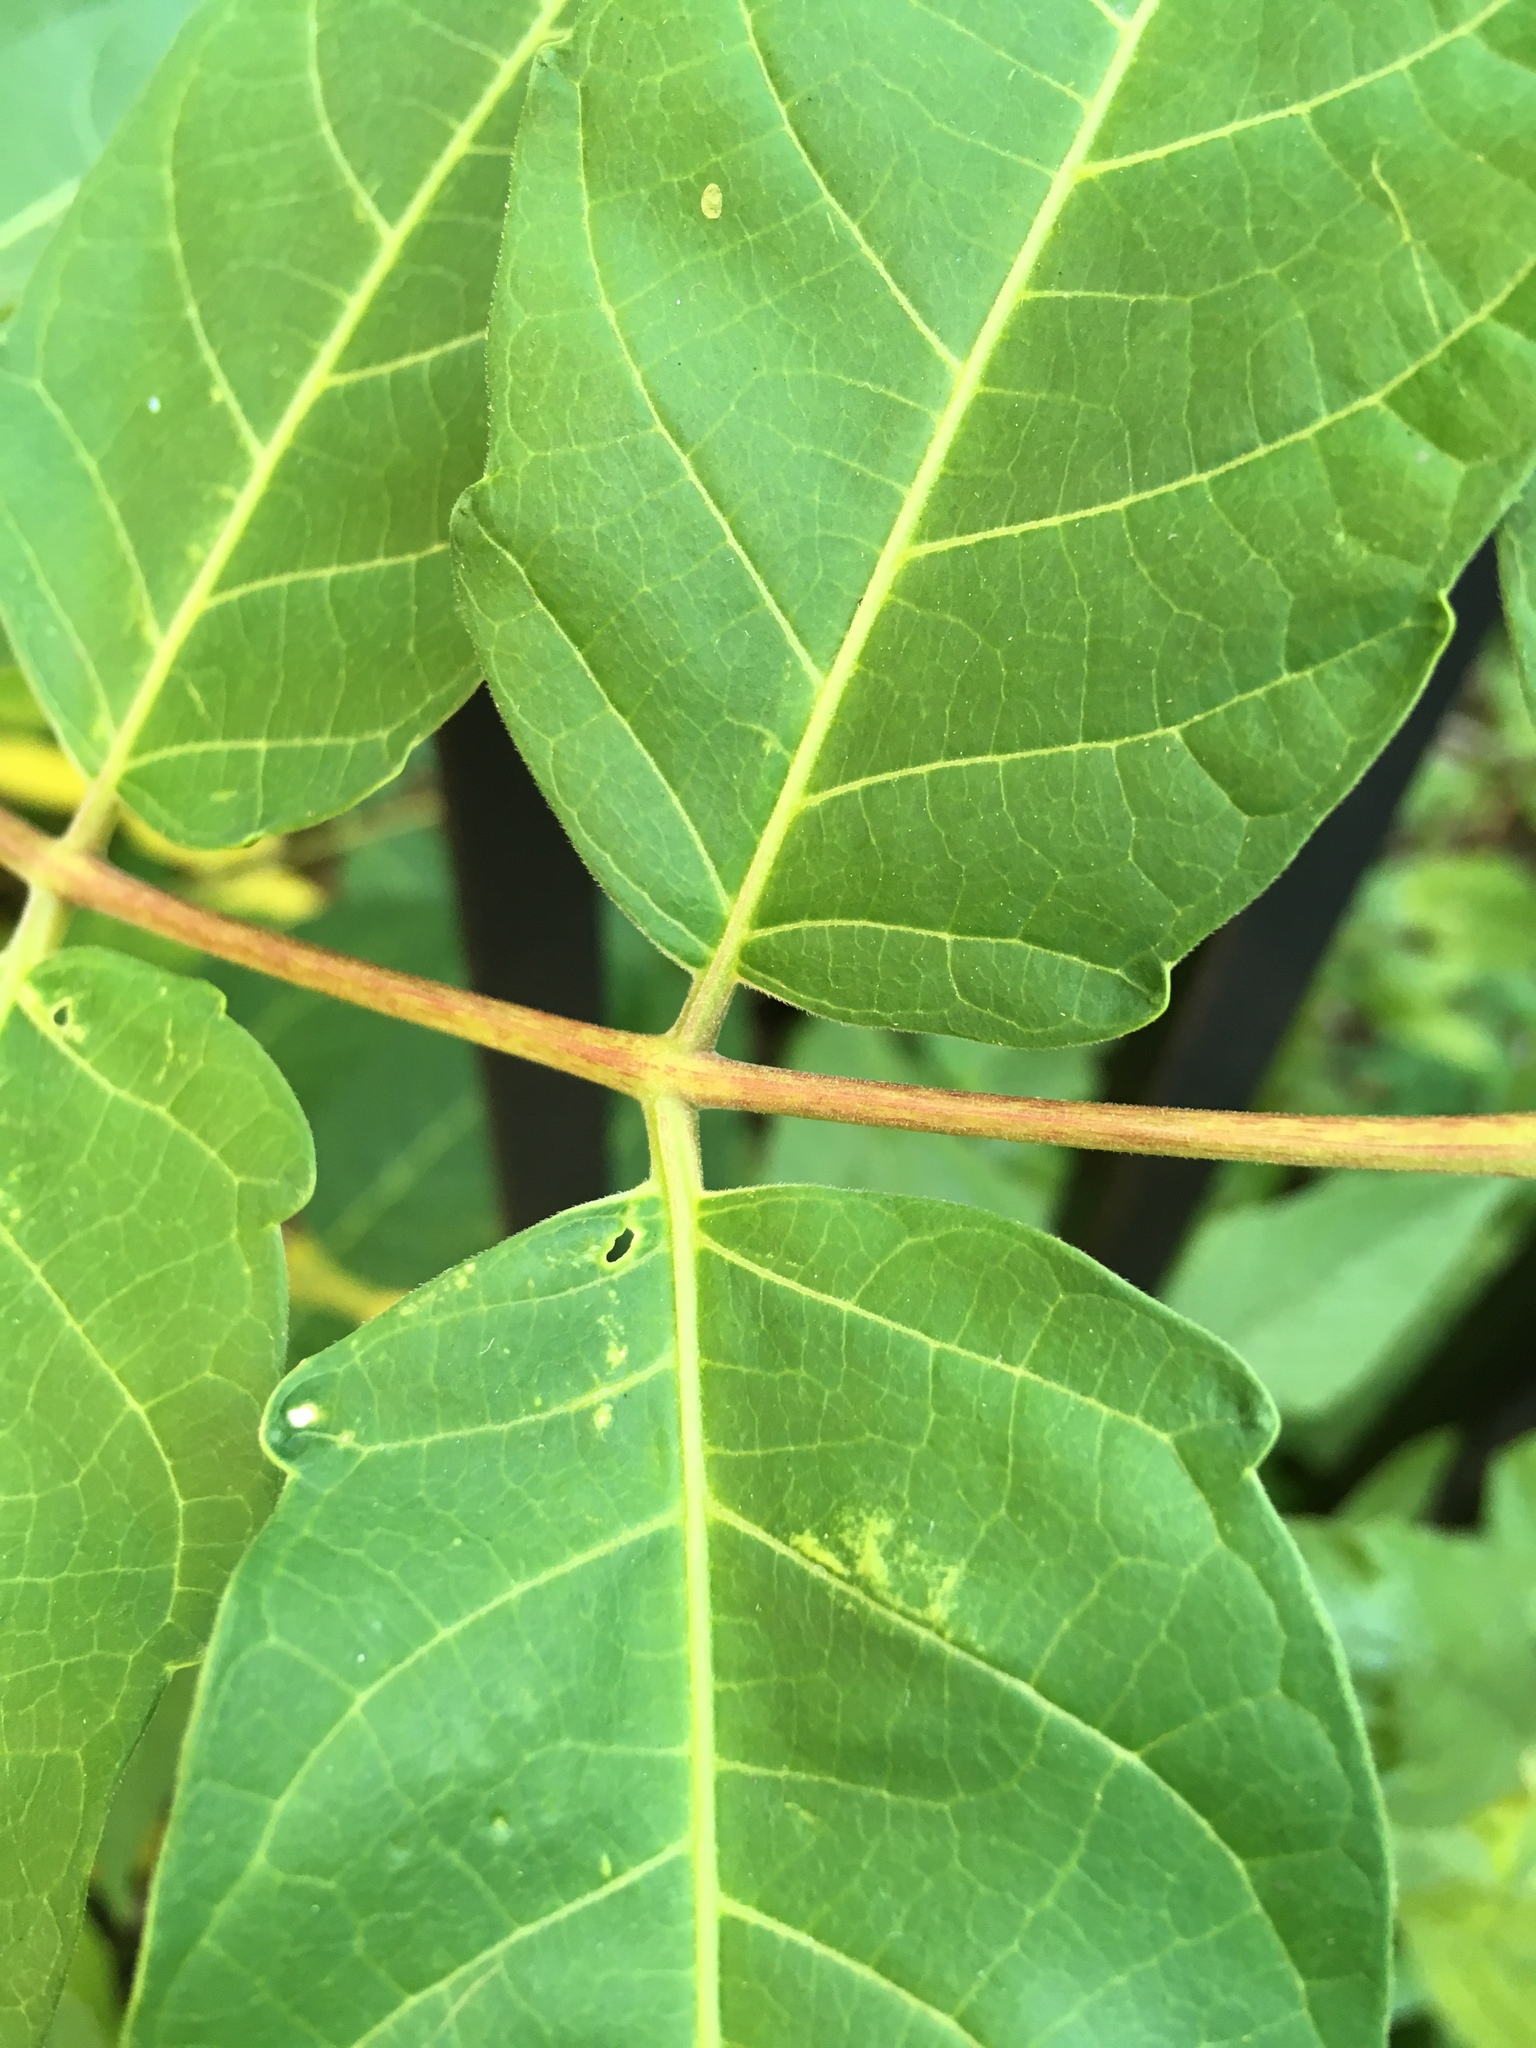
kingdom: Plantae
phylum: Tracheophyta
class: Magnoliopsida
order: Sapindales
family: Simaroubaceae
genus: Ailanthus
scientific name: Ailanthus altissima
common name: Tree-of-heaven
